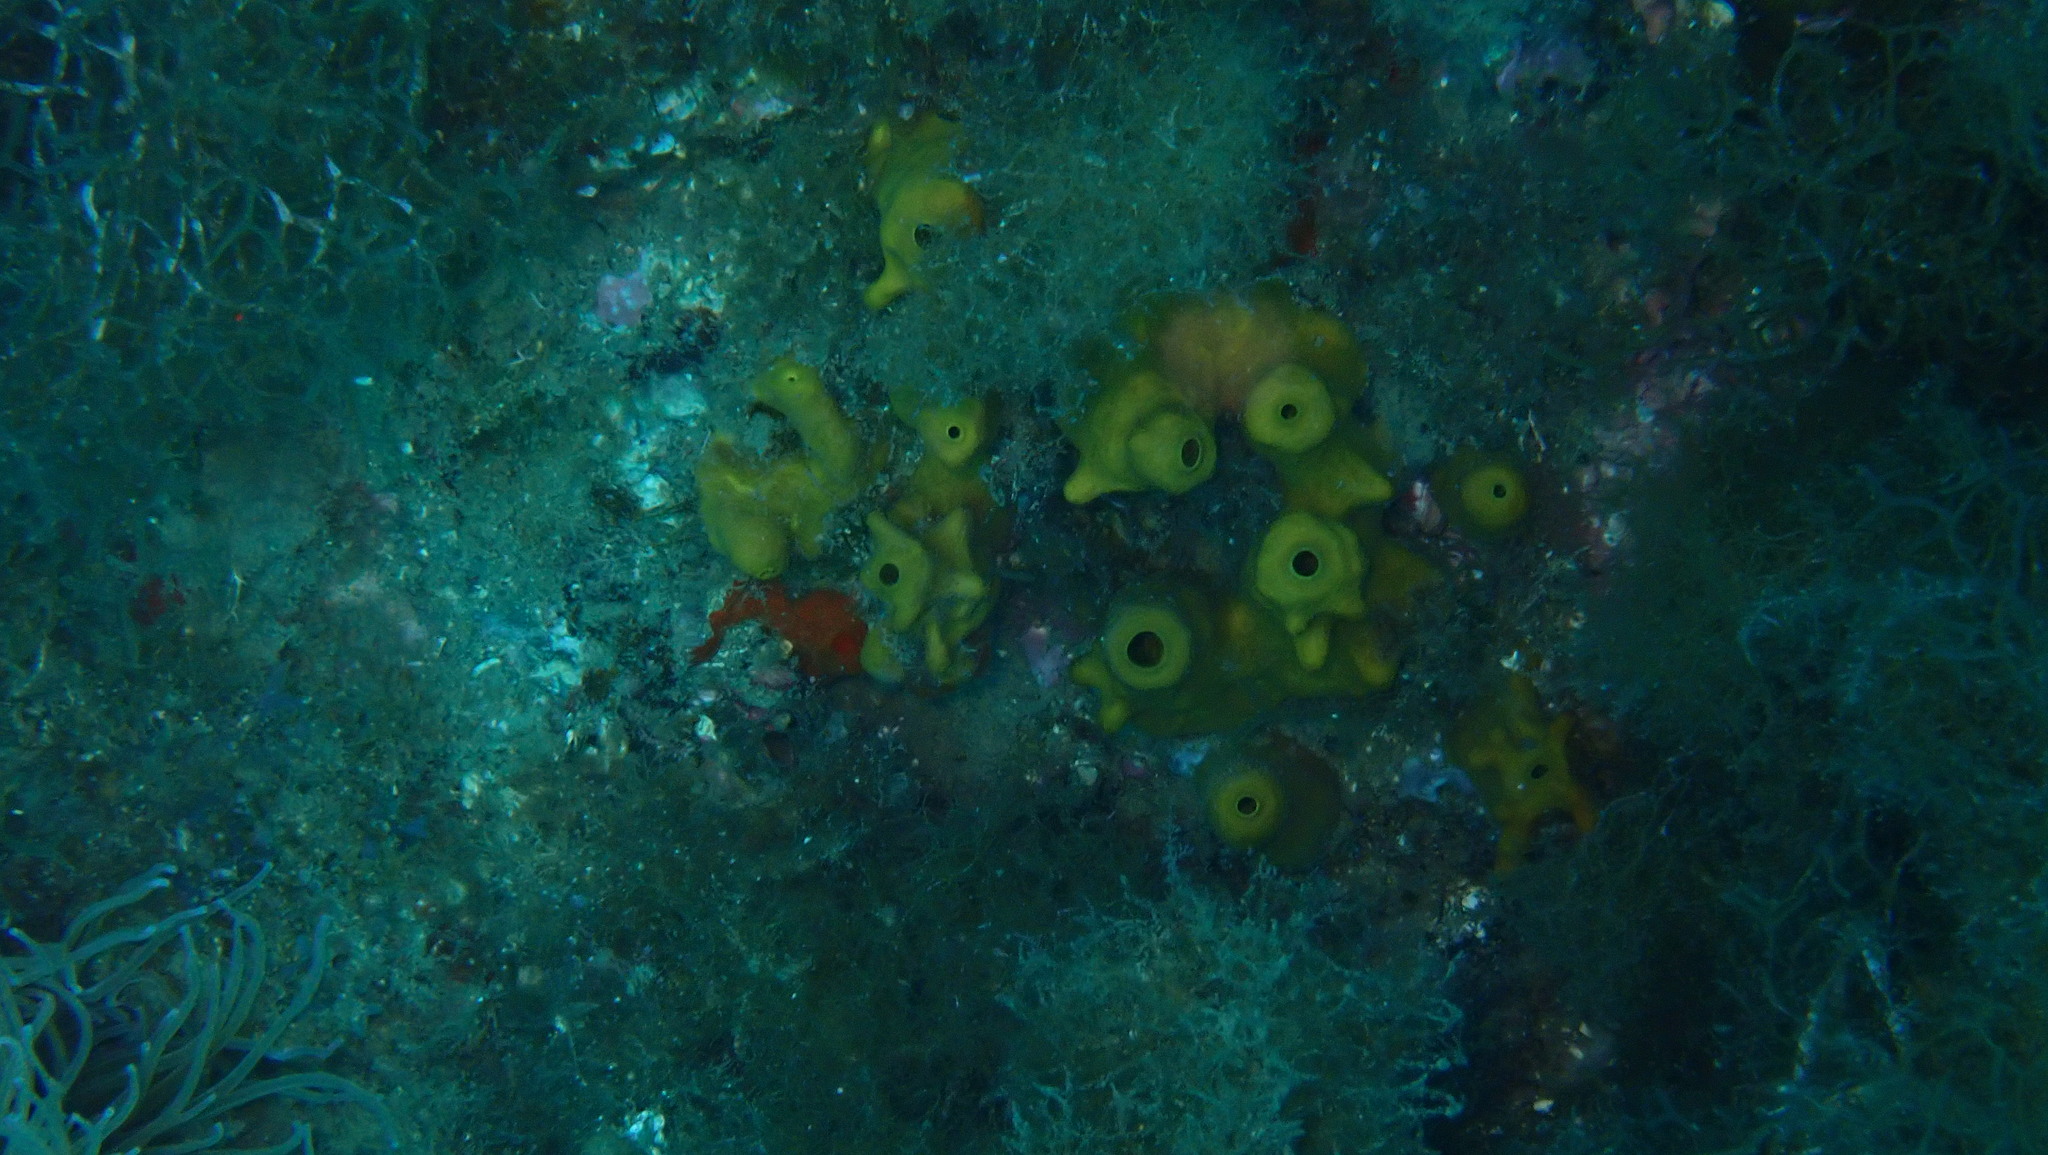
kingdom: Animalia
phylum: Porifera
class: Demospongiae
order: Verongiida
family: Aplysinidae
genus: Aplysina
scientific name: Aplysina aerophoba
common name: Aureate sponge
